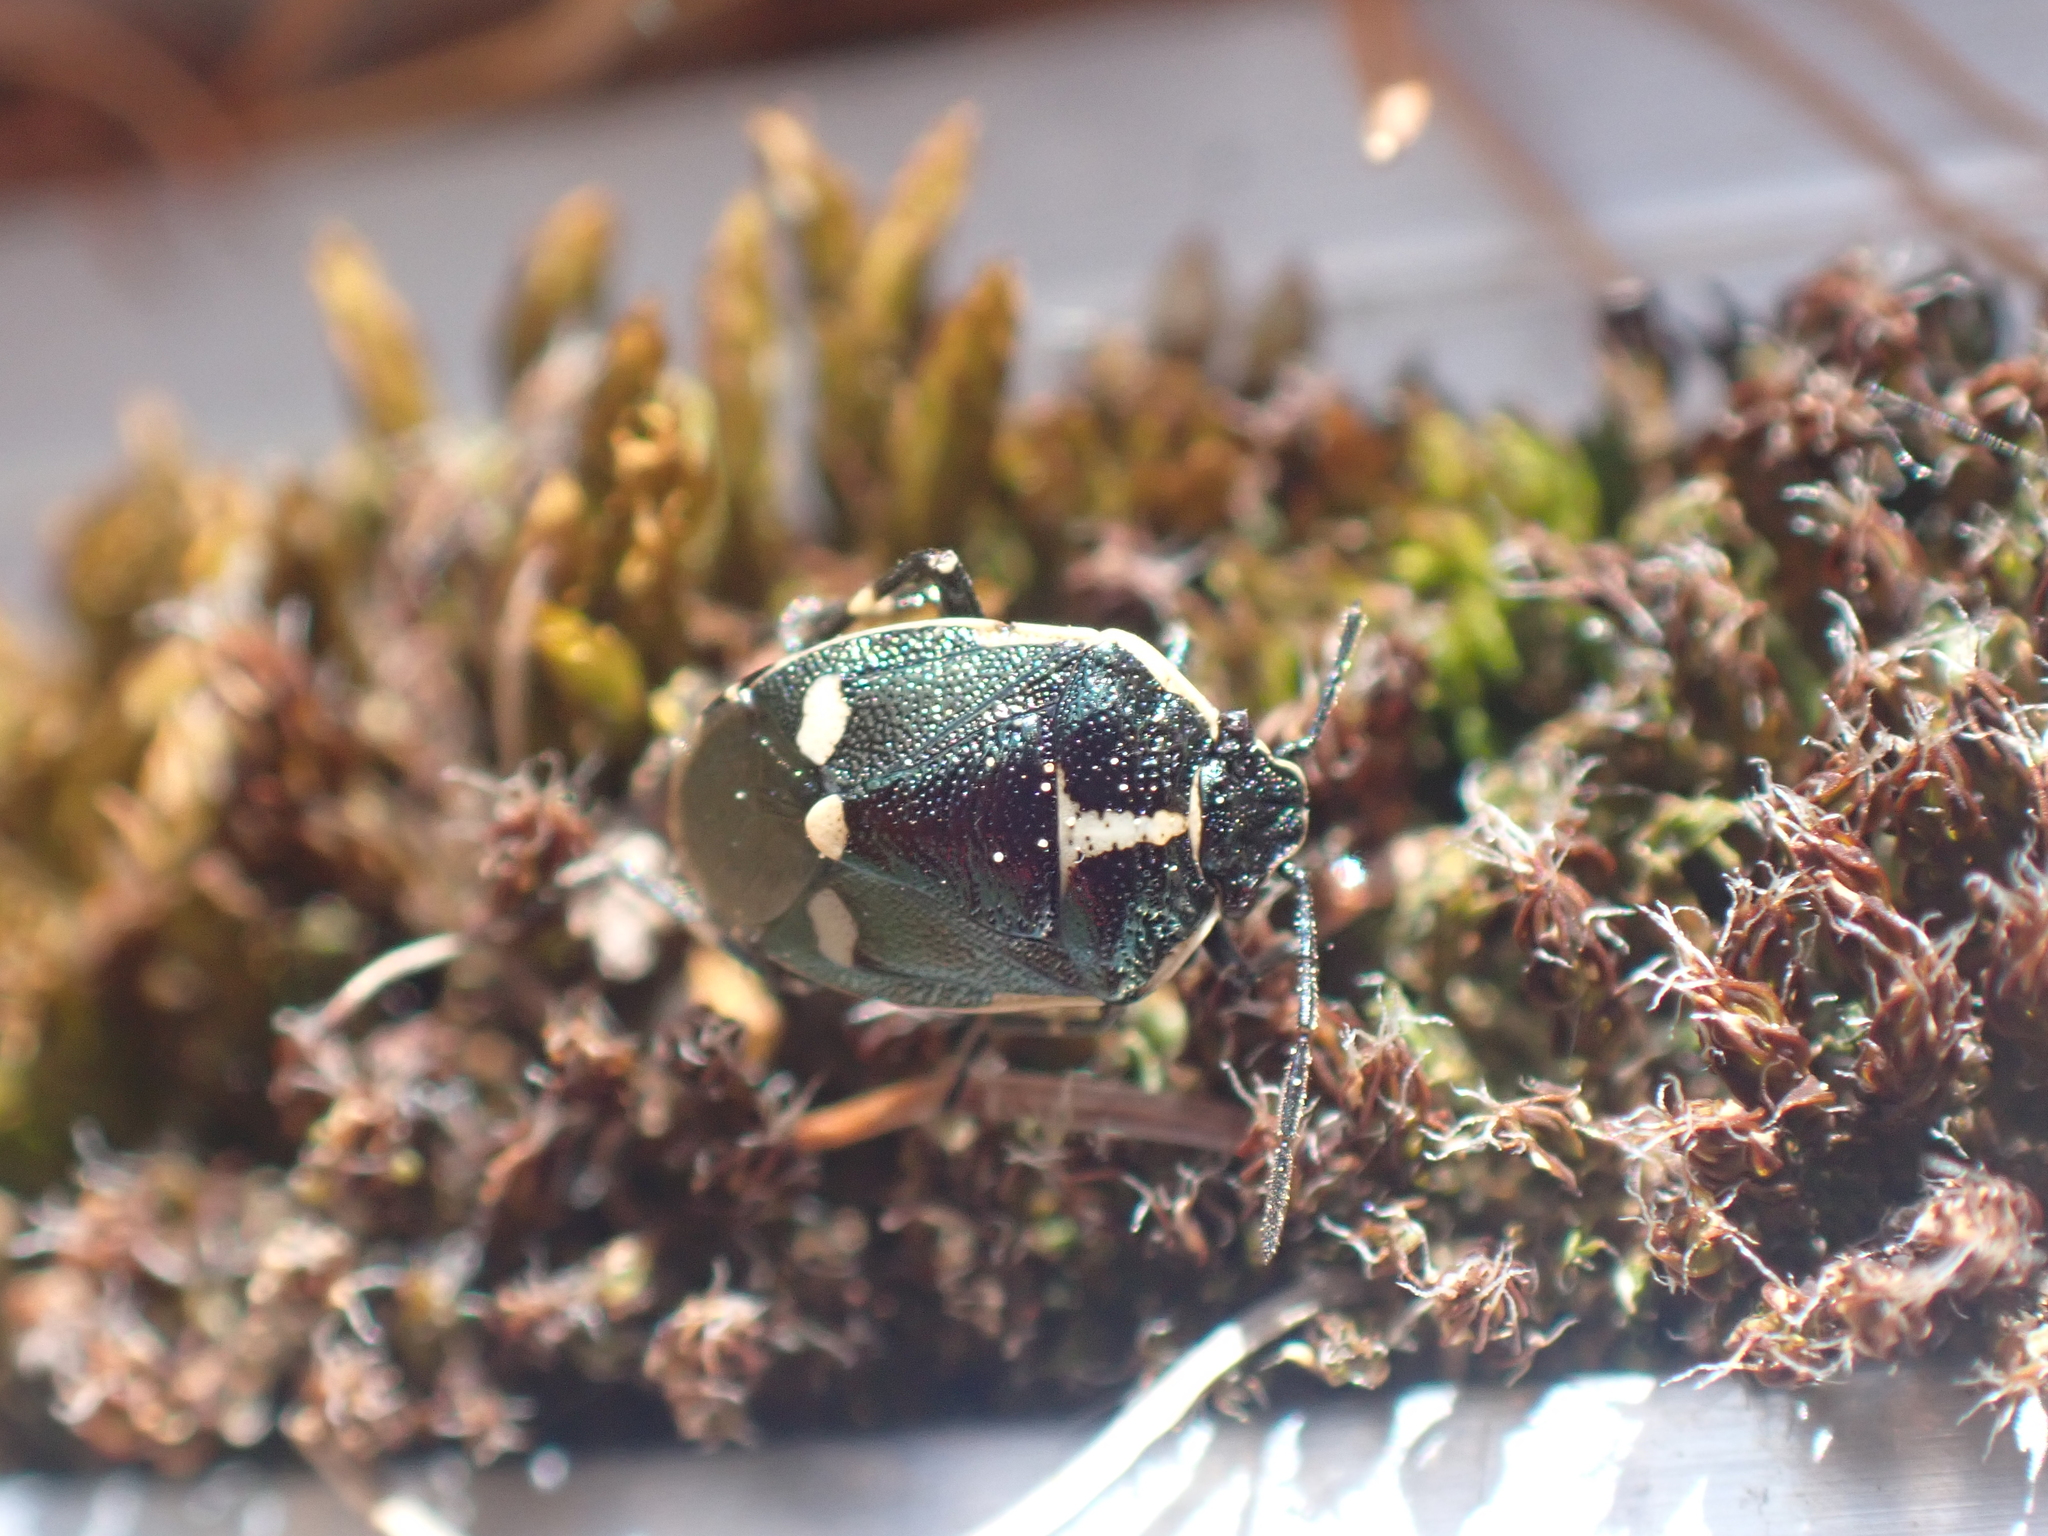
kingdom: Animalia
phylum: Arthropoda
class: Insecta
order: Hemiptera
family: Pentatomidae
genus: Eurydema
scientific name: Eurydema oleracea
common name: Cabbage bug
